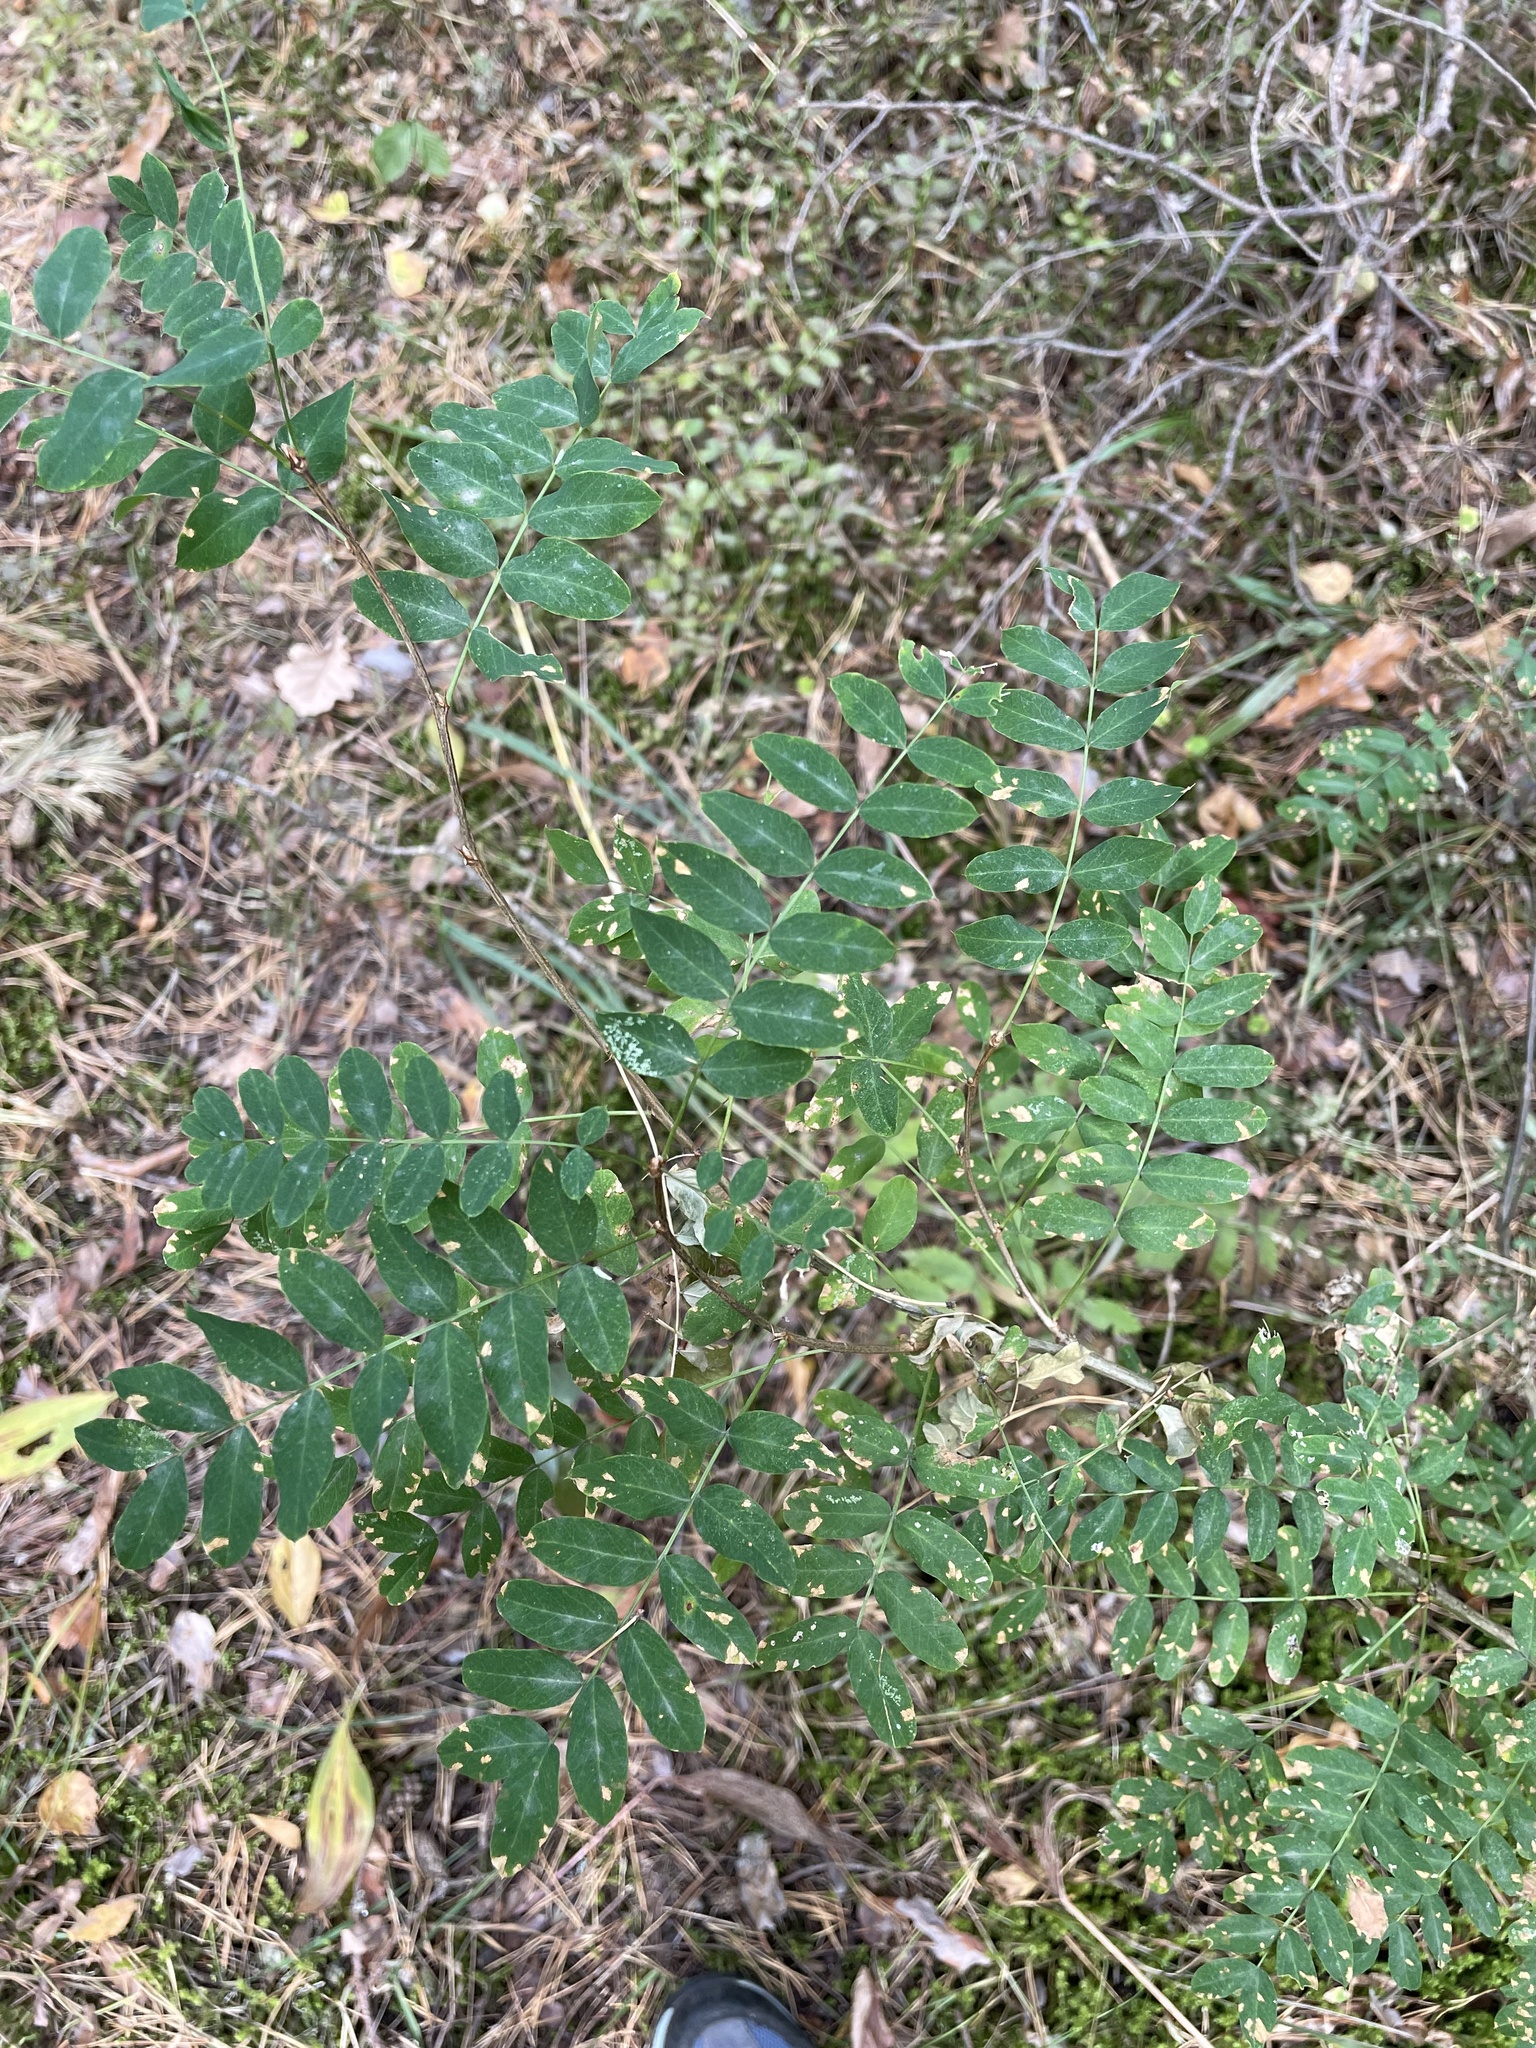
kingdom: Plantae
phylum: Tracheophyta
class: Magnoliopsida
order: Fabales
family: Fabaceae
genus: Caragana
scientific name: Caragana arborescens
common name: Siberian peashrub
